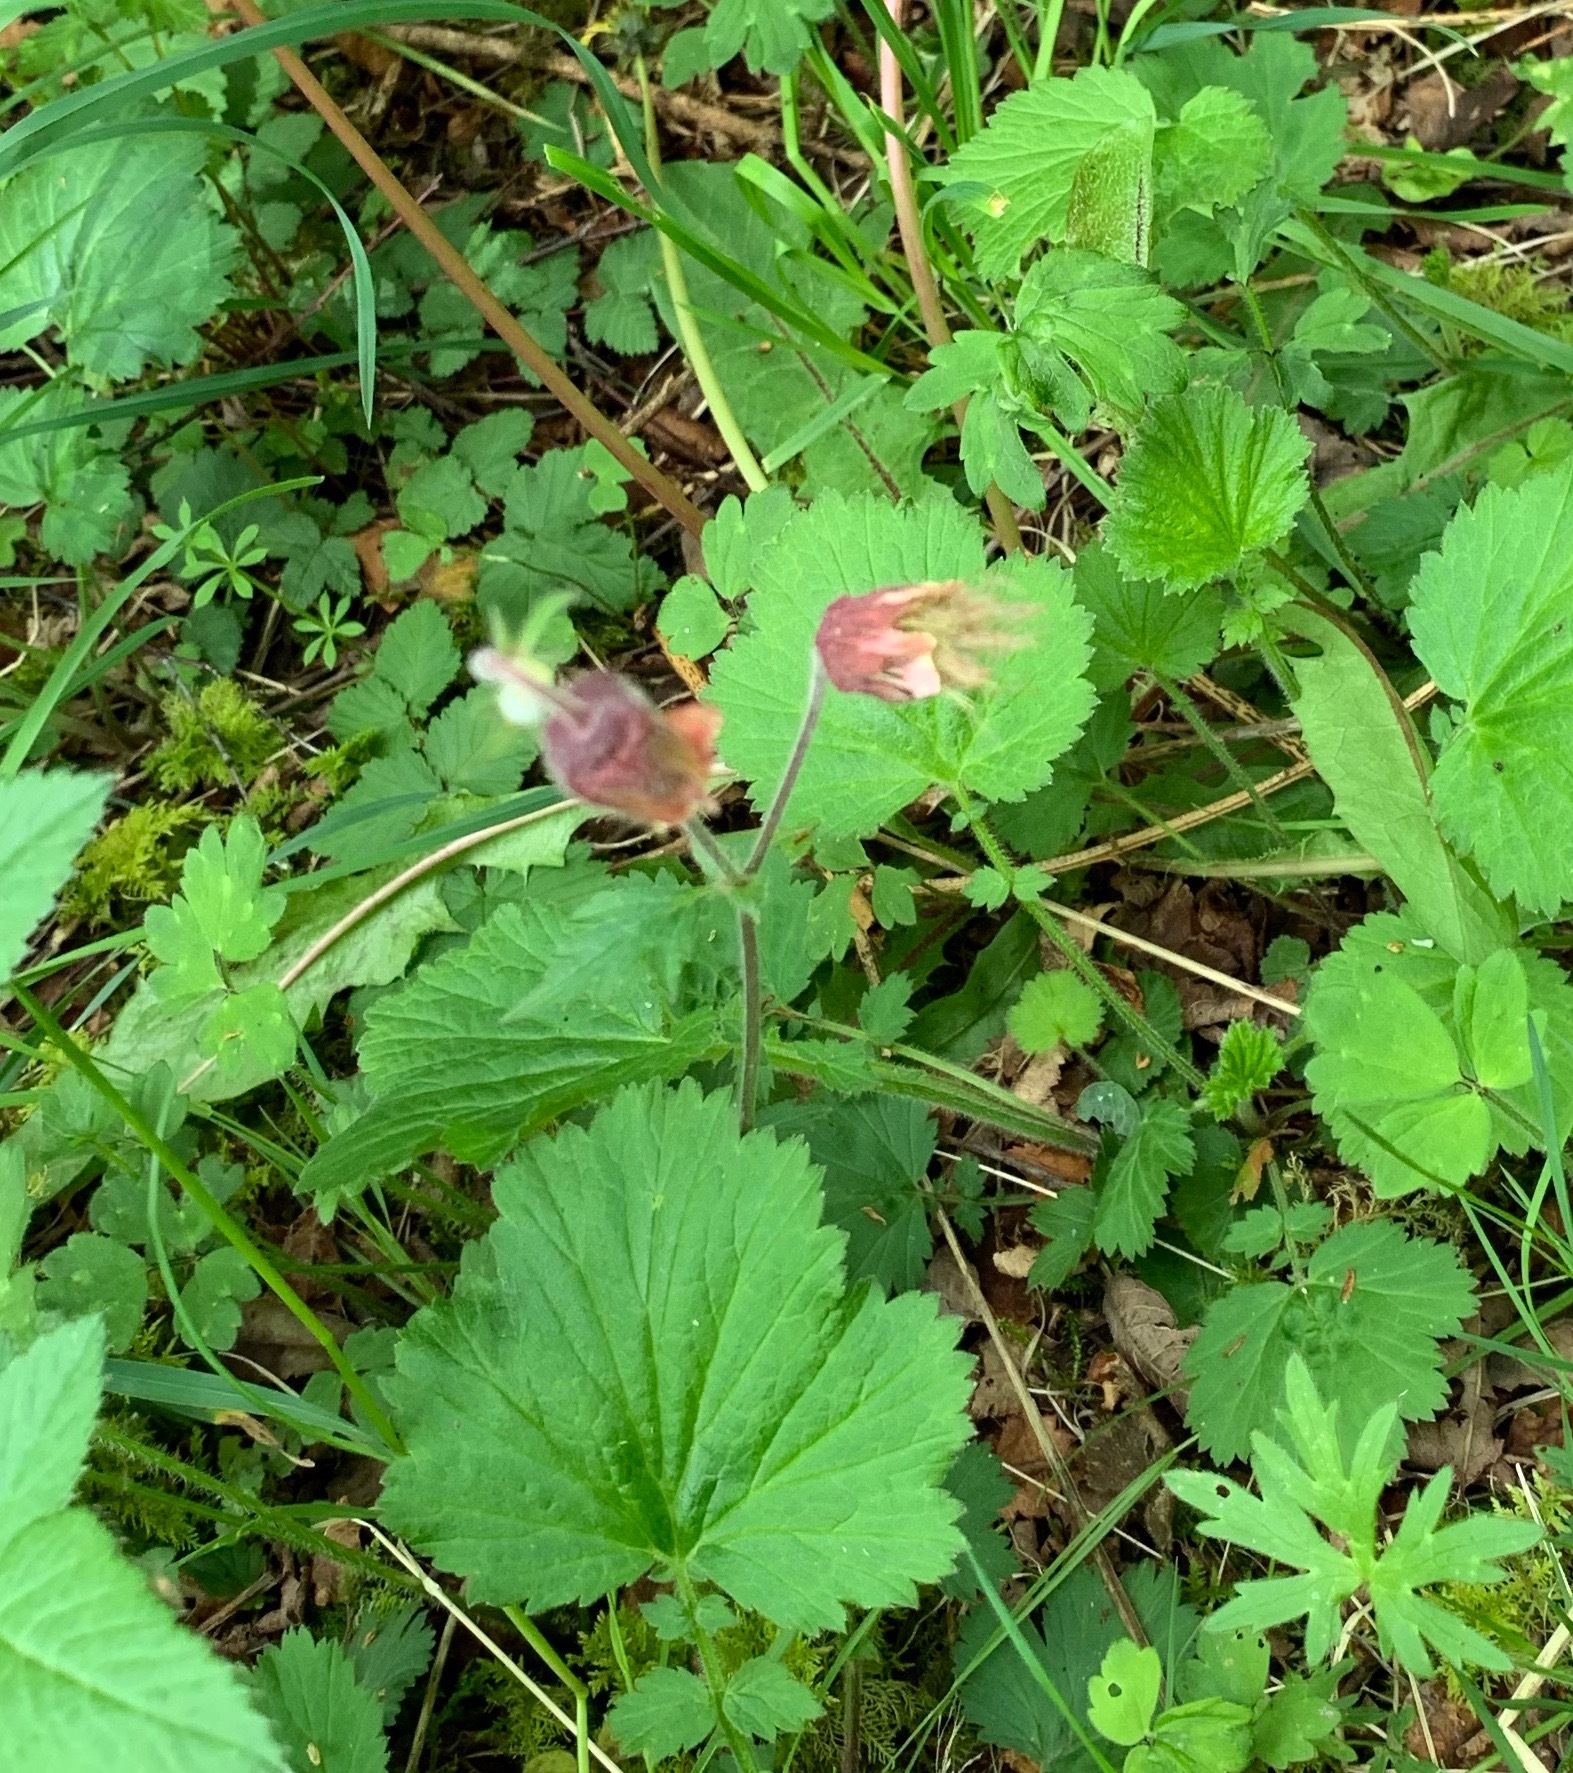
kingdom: Plantae
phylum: Tracheophyta
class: Magnoliopsida
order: Rosales
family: Rosaceae
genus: Geum
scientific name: Geum rivale
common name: Water avens
